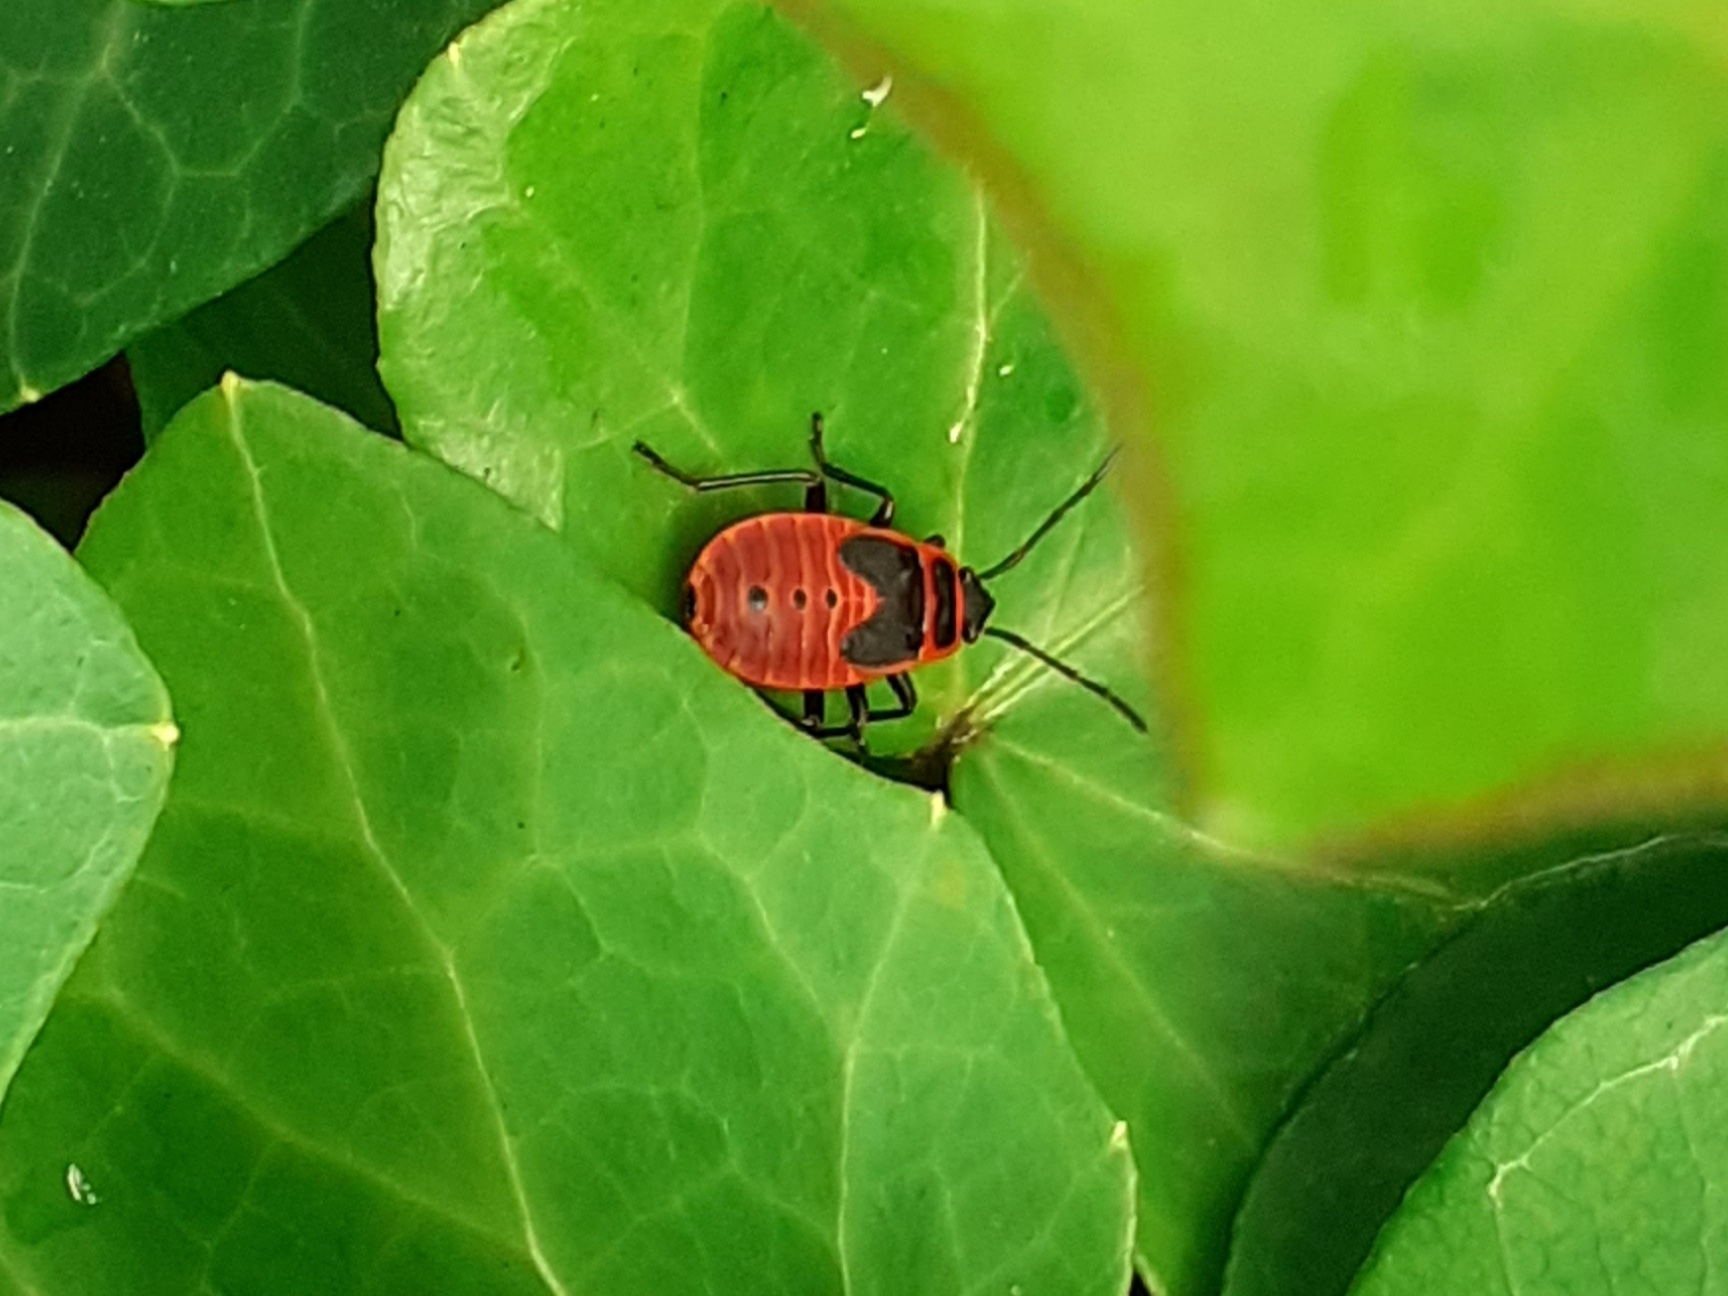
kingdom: Animalia
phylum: Arthropoda
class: Insecta
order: Hemiptera
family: Pyrrhocoridae
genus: Pyrrhocoris
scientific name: Pyrrhocoris apterus
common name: Firebug
